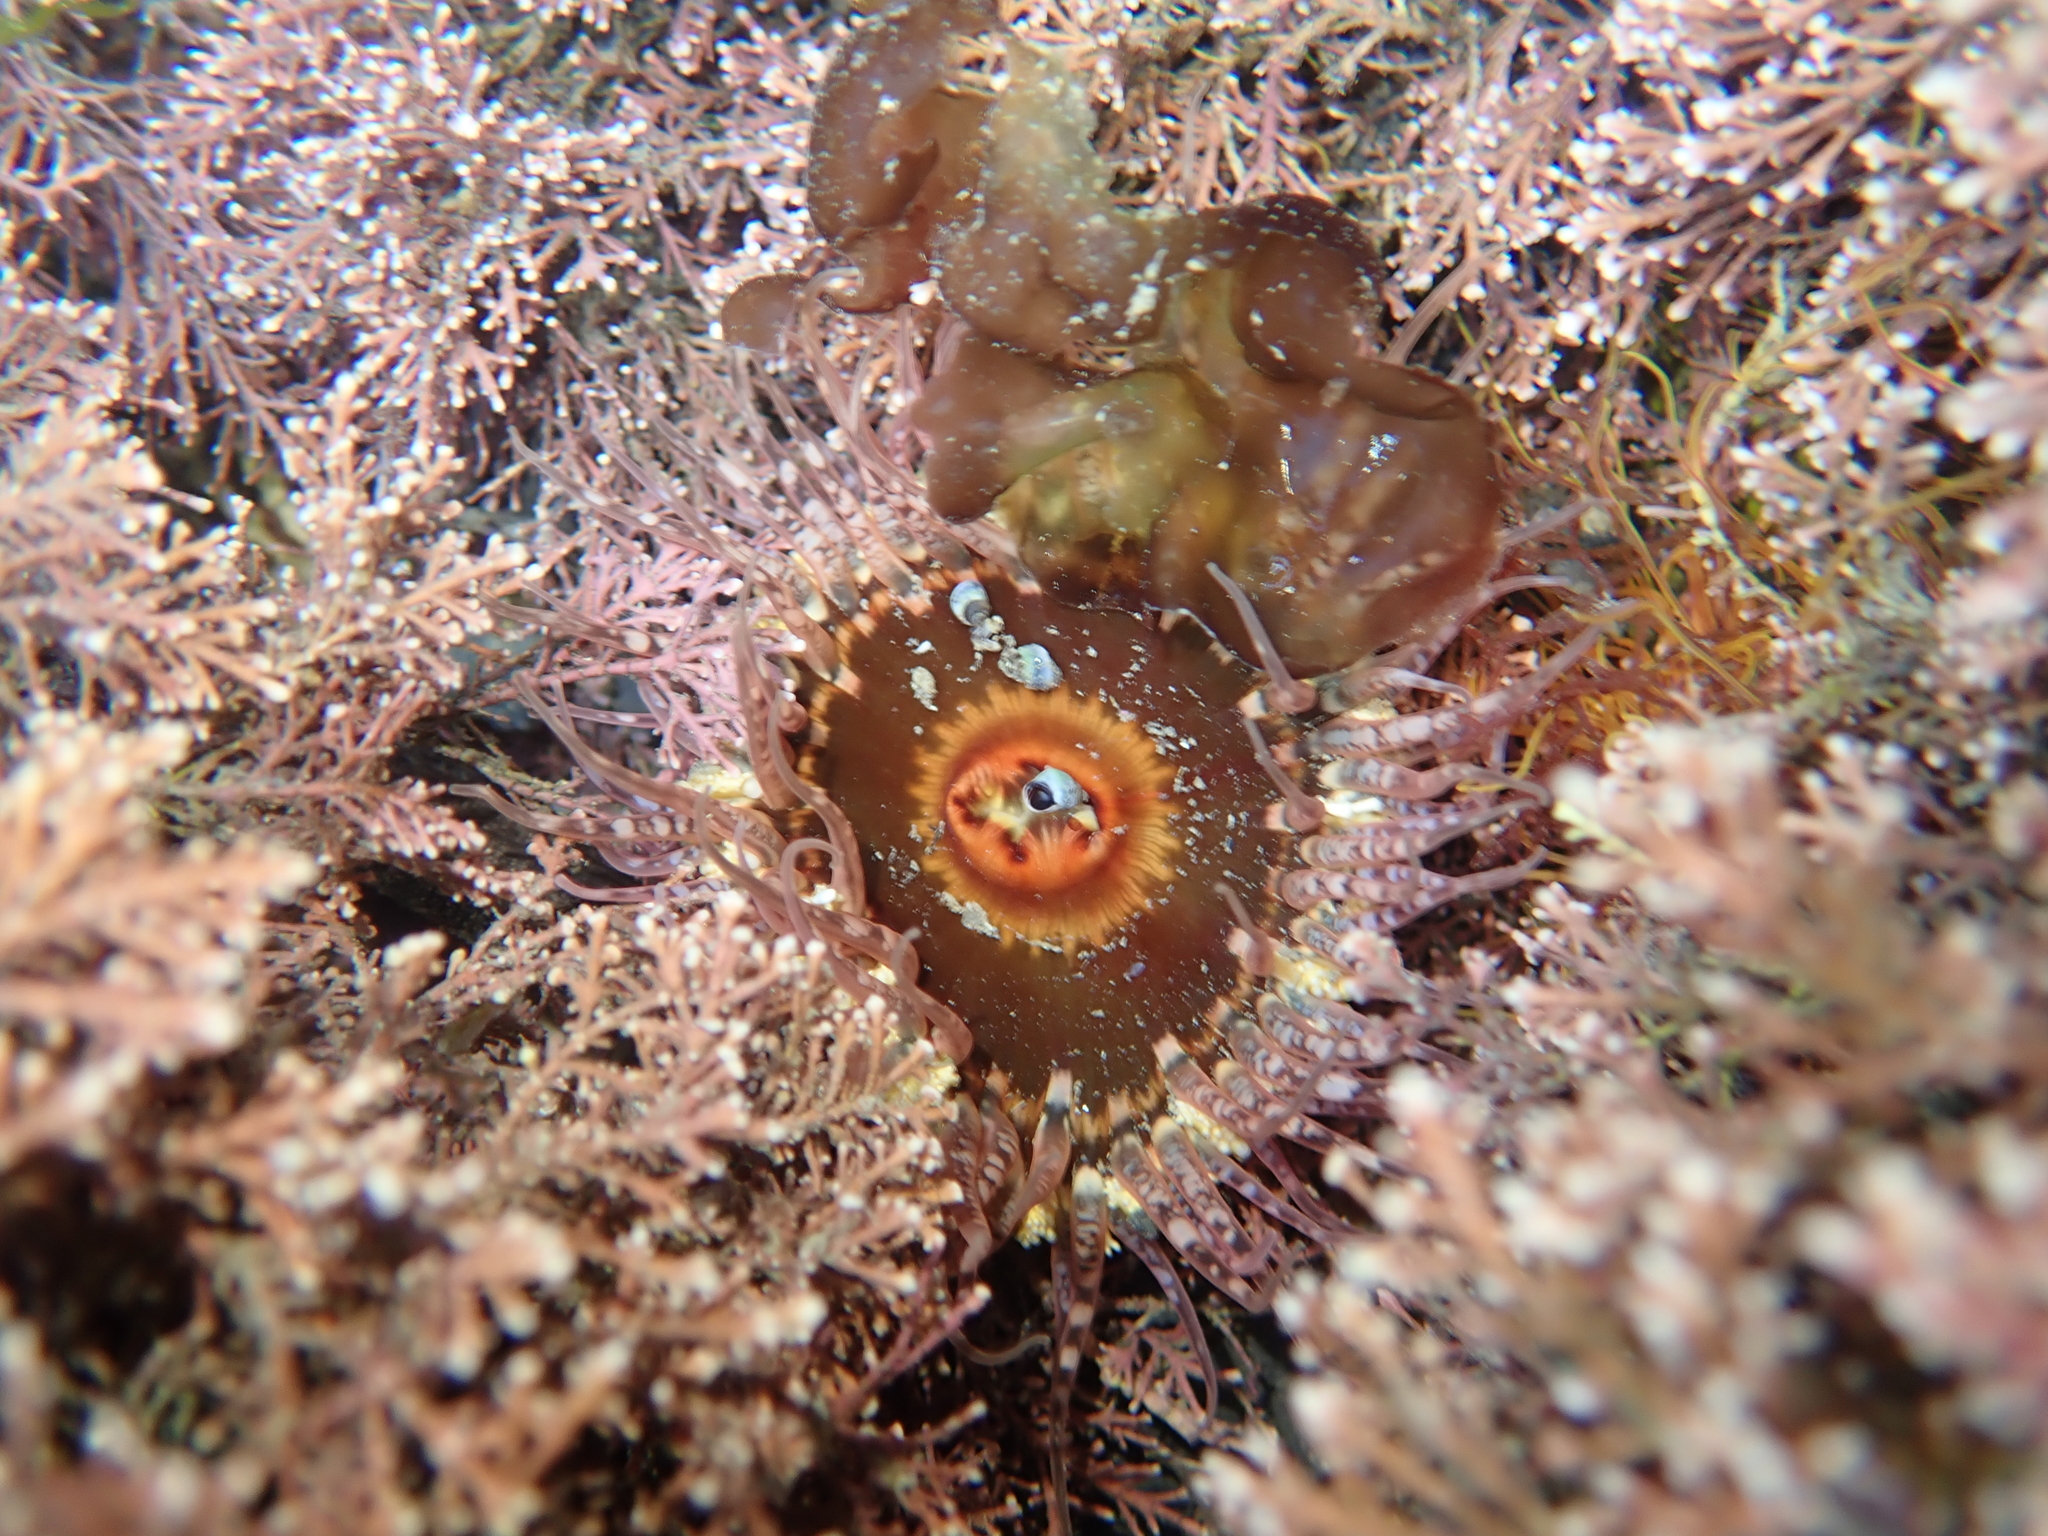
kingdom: Animalia
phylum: Cnidaria
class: Anthozoa
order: Actiniaria
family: Actiniidae
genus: Oulactis
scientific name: Oulactis muscosa
